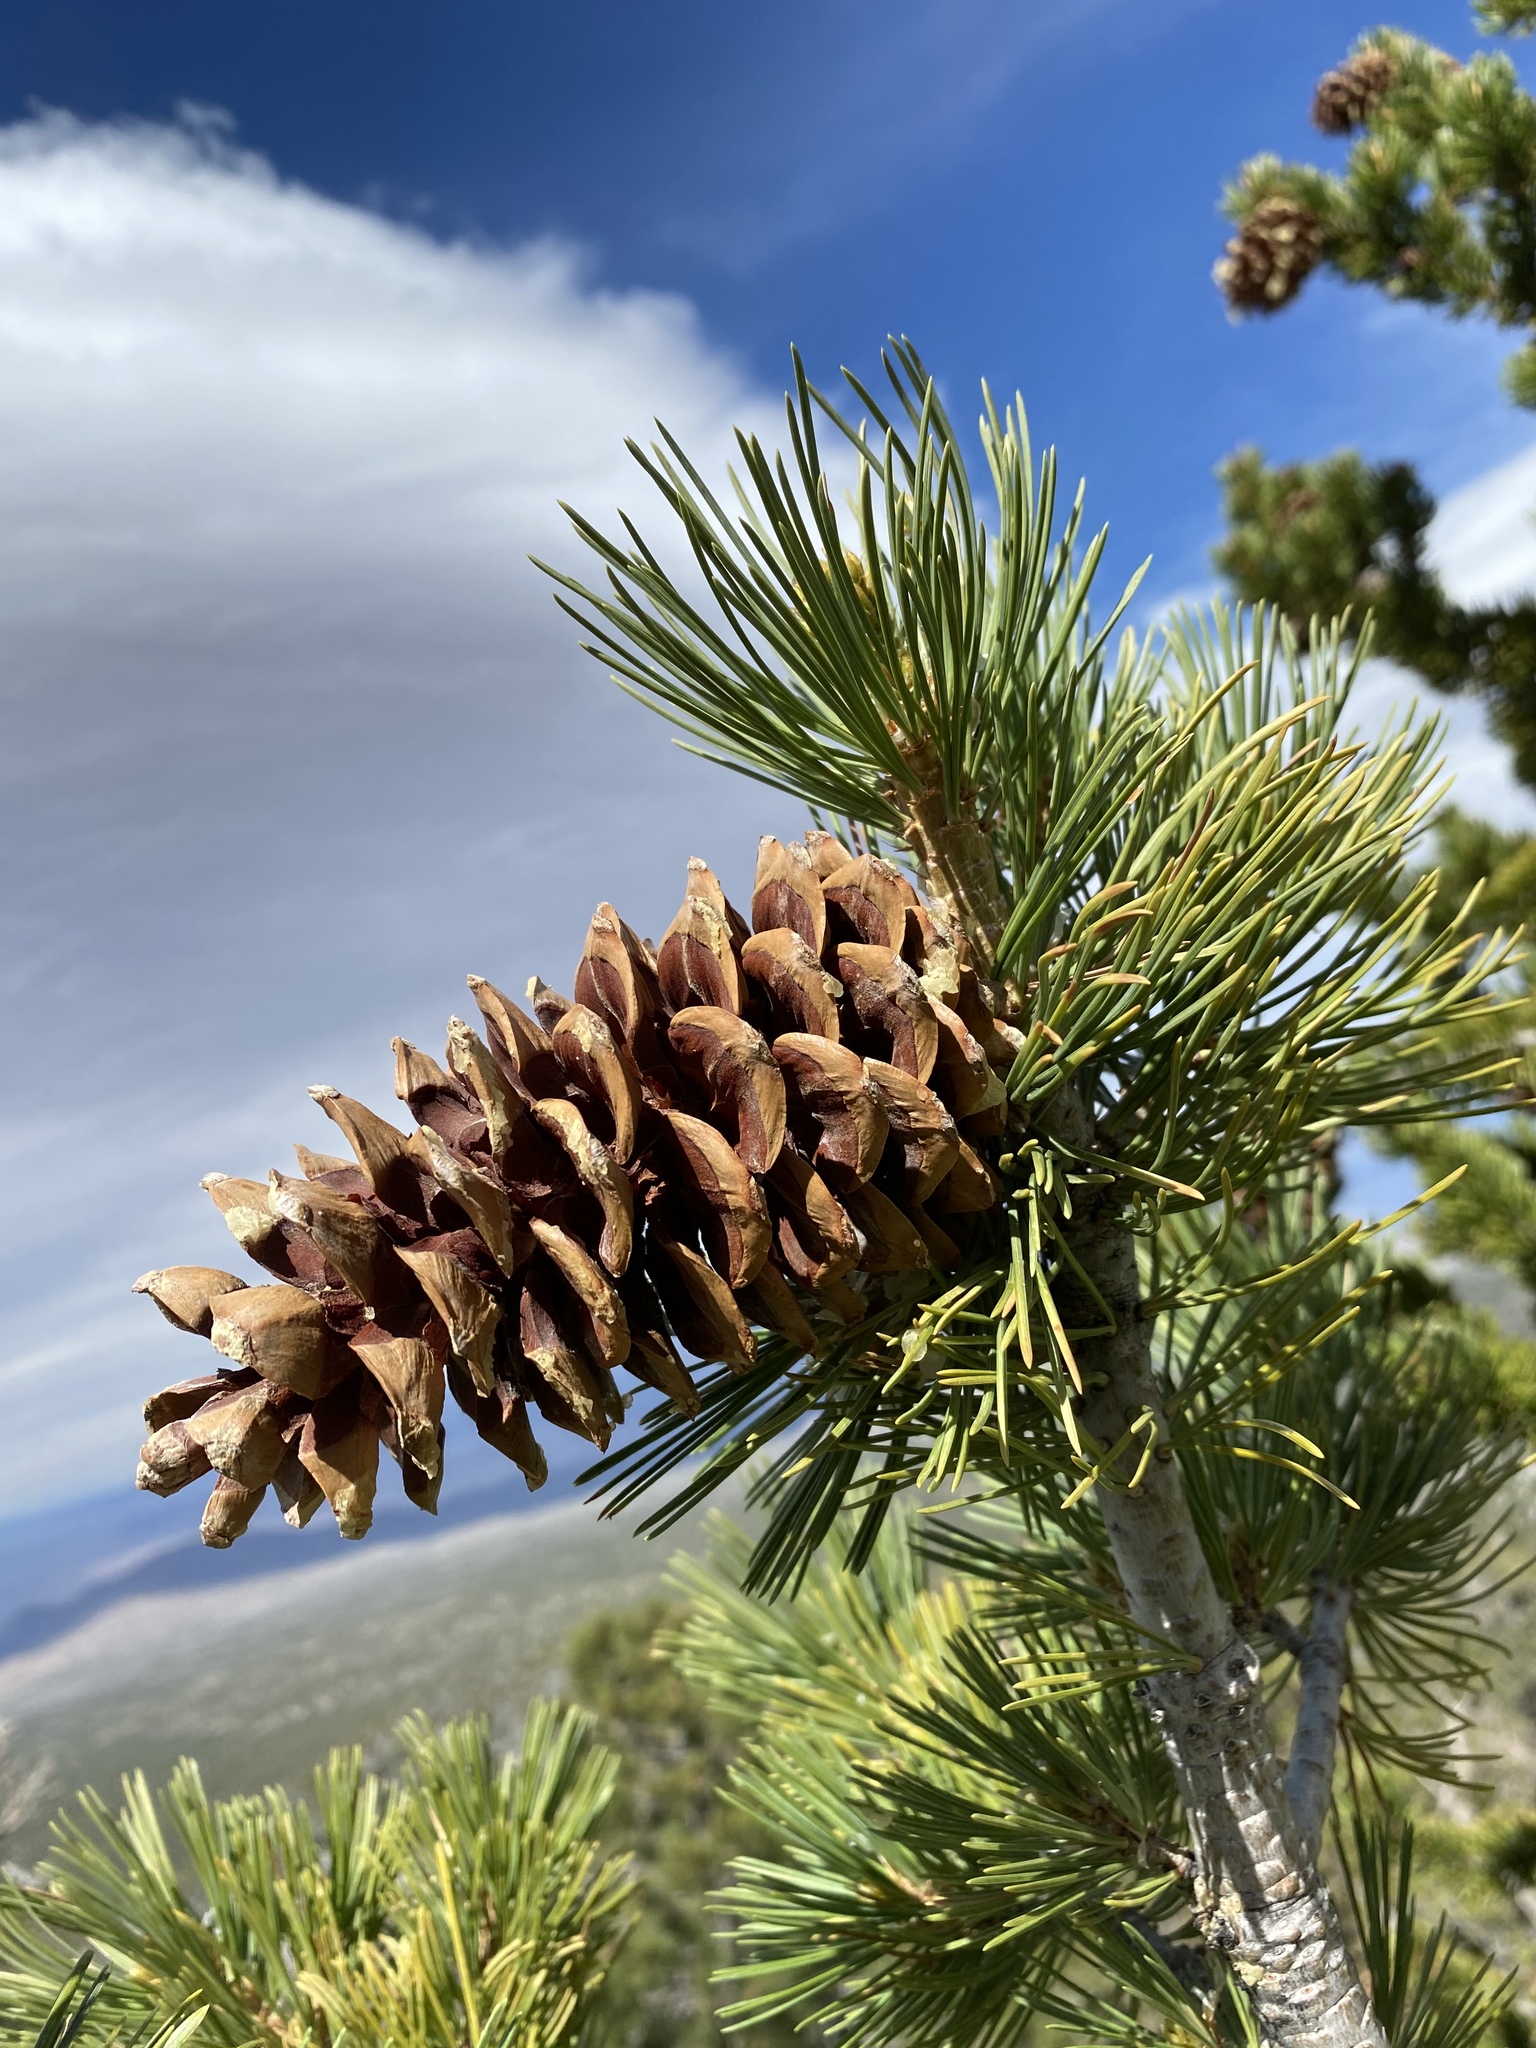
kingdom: Plantae
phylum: Tracheophyta
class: Pinopsida
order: Pinales
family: Pinaceae
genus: Pinus
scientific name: Pinus flexilis
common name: Limber pine
